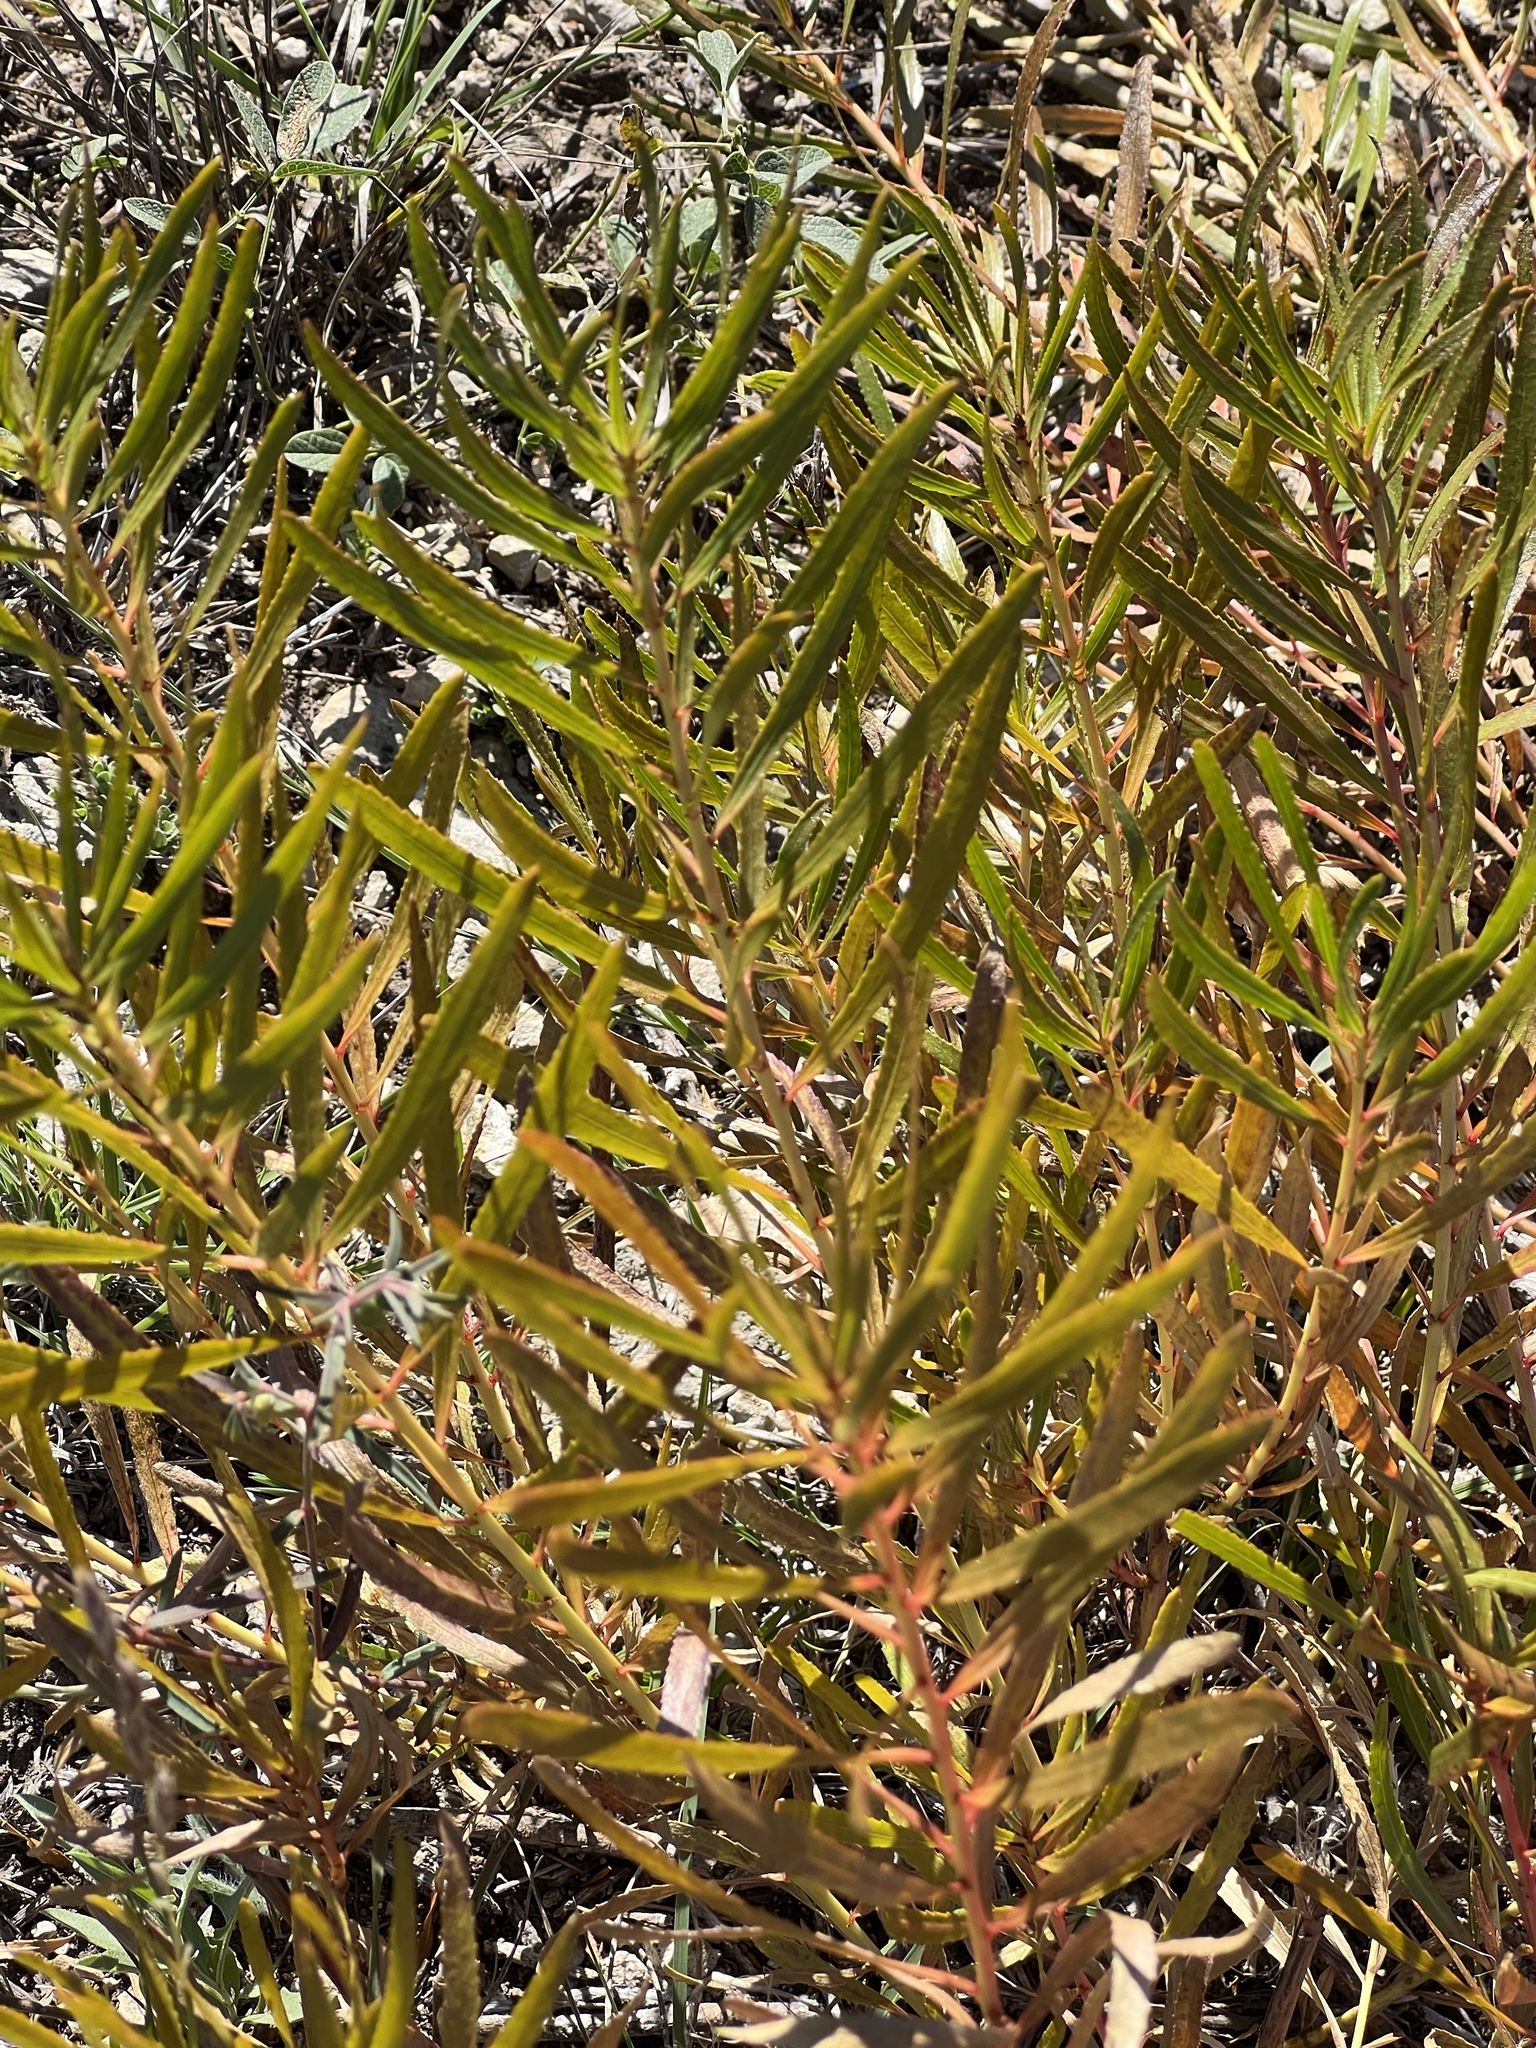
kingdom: Plantae
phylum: Tracheophyta
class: Magnoliopsida
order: Malpighiales
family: Euphorbiaceae
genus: Stillingia
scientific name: Stillingia texana
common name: Texas stillingia
